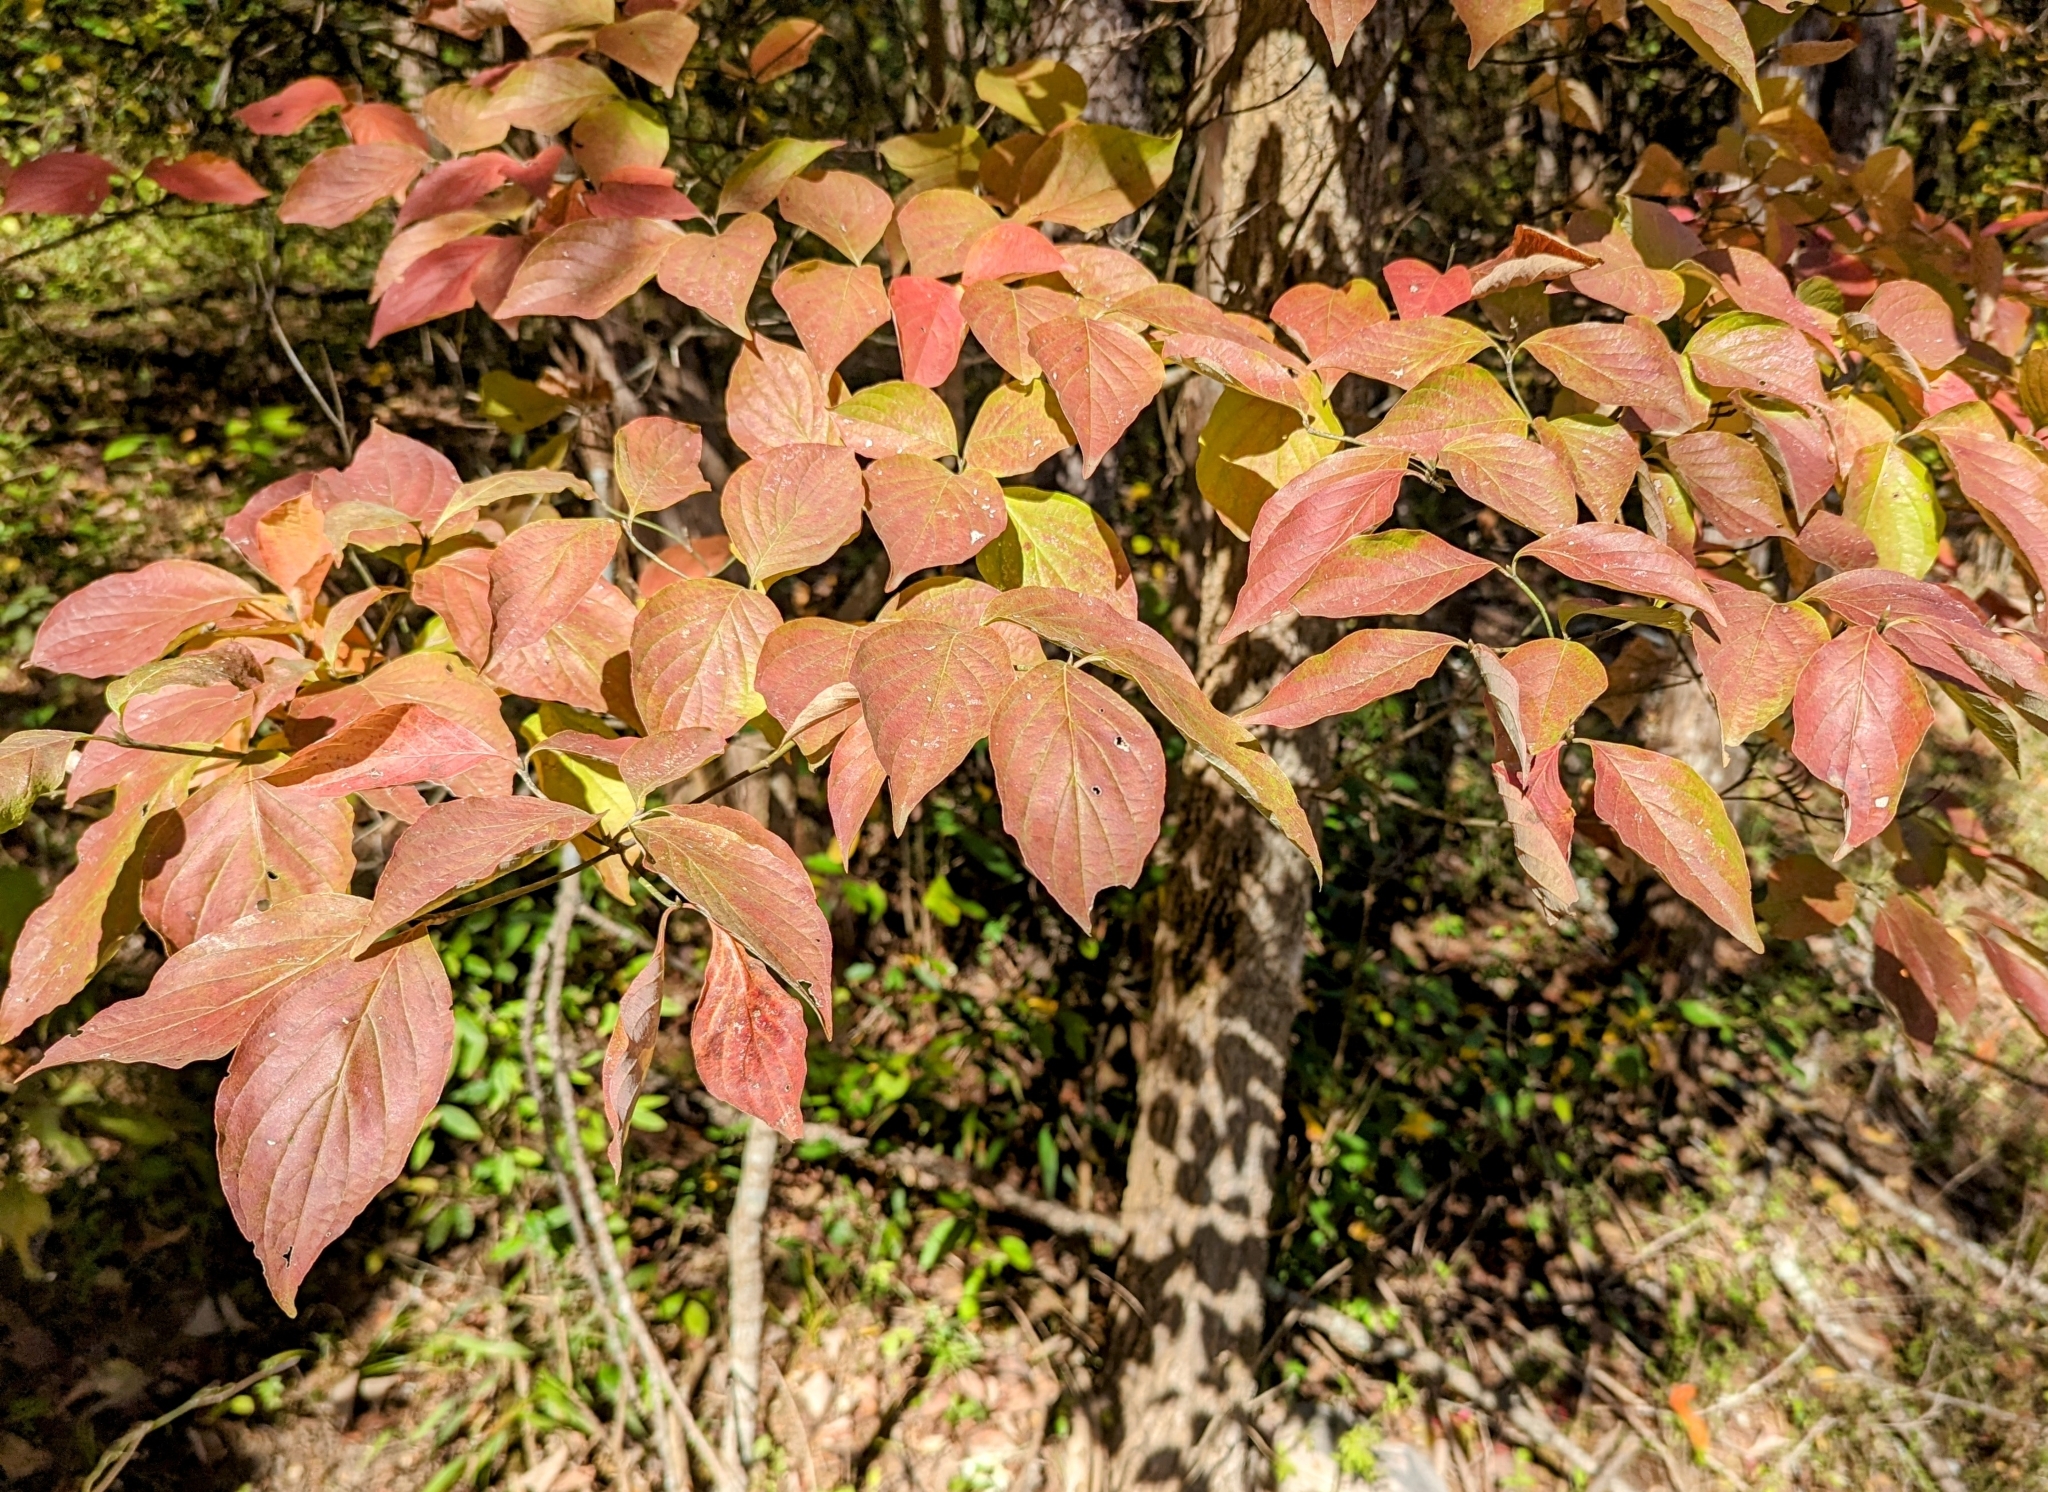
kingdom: Plantae
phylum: Tracheophyta
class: Magnoliopsida
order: Cornales
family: Cornaceae
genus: Cornus
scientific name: Cornus florida
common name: Flowering dogwood
